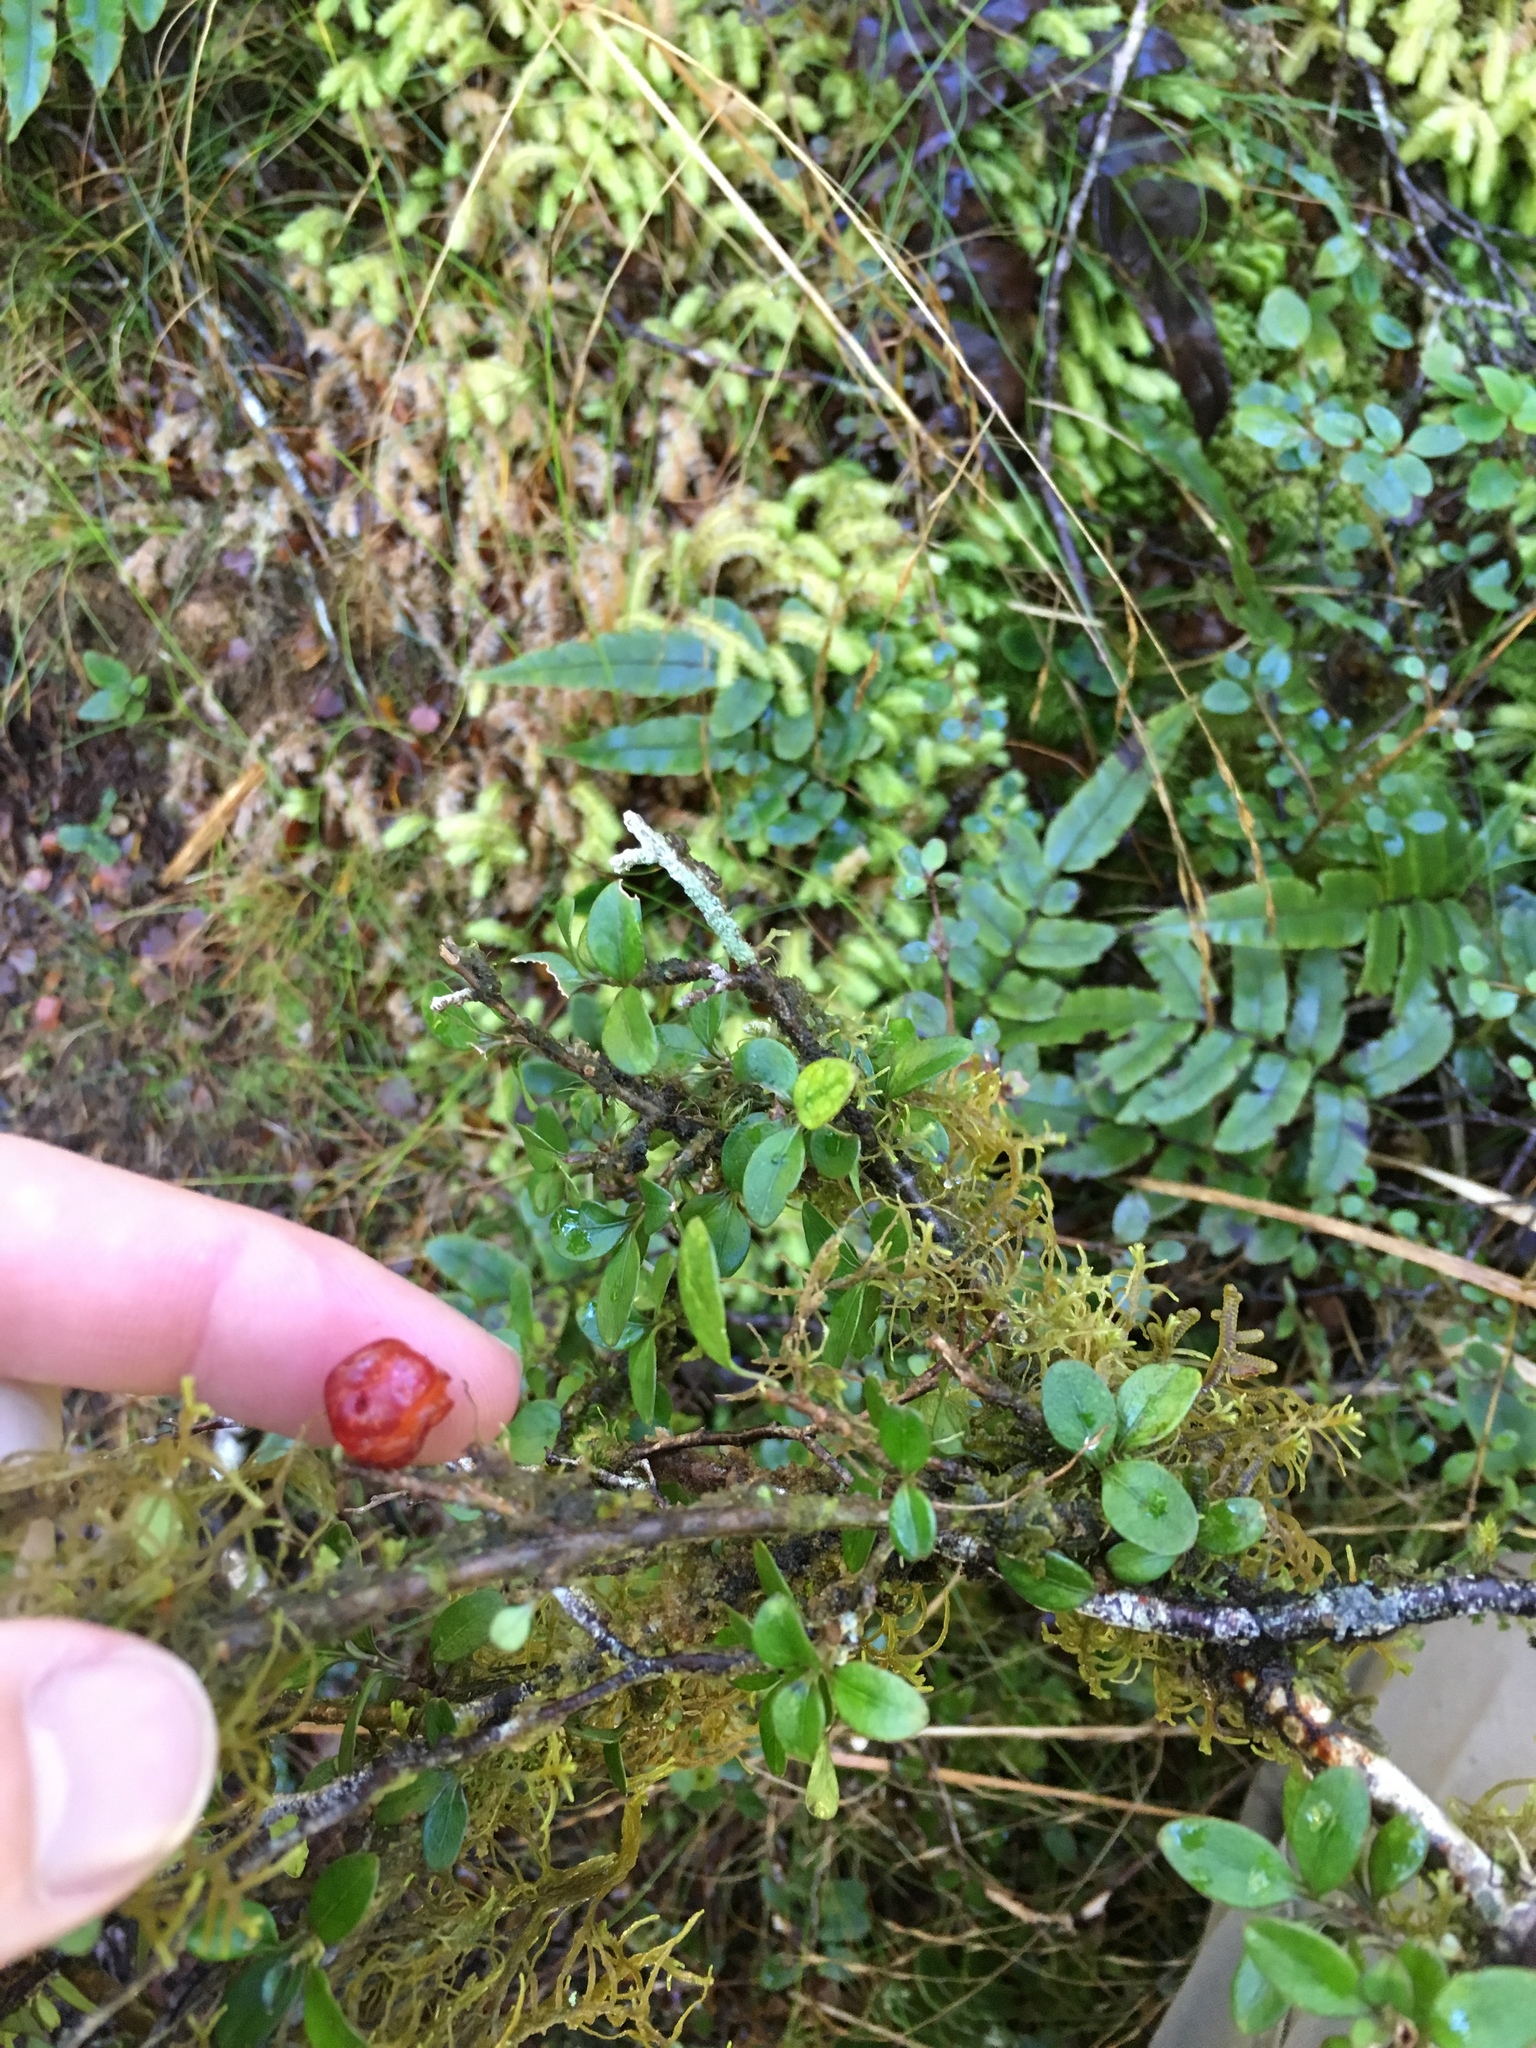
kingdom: Plantae
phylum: Tracheophyta
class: Magnoliopsida
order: Gentianales
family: Rubiaceae
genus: Coprosma
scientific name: Coprosma colensoi
